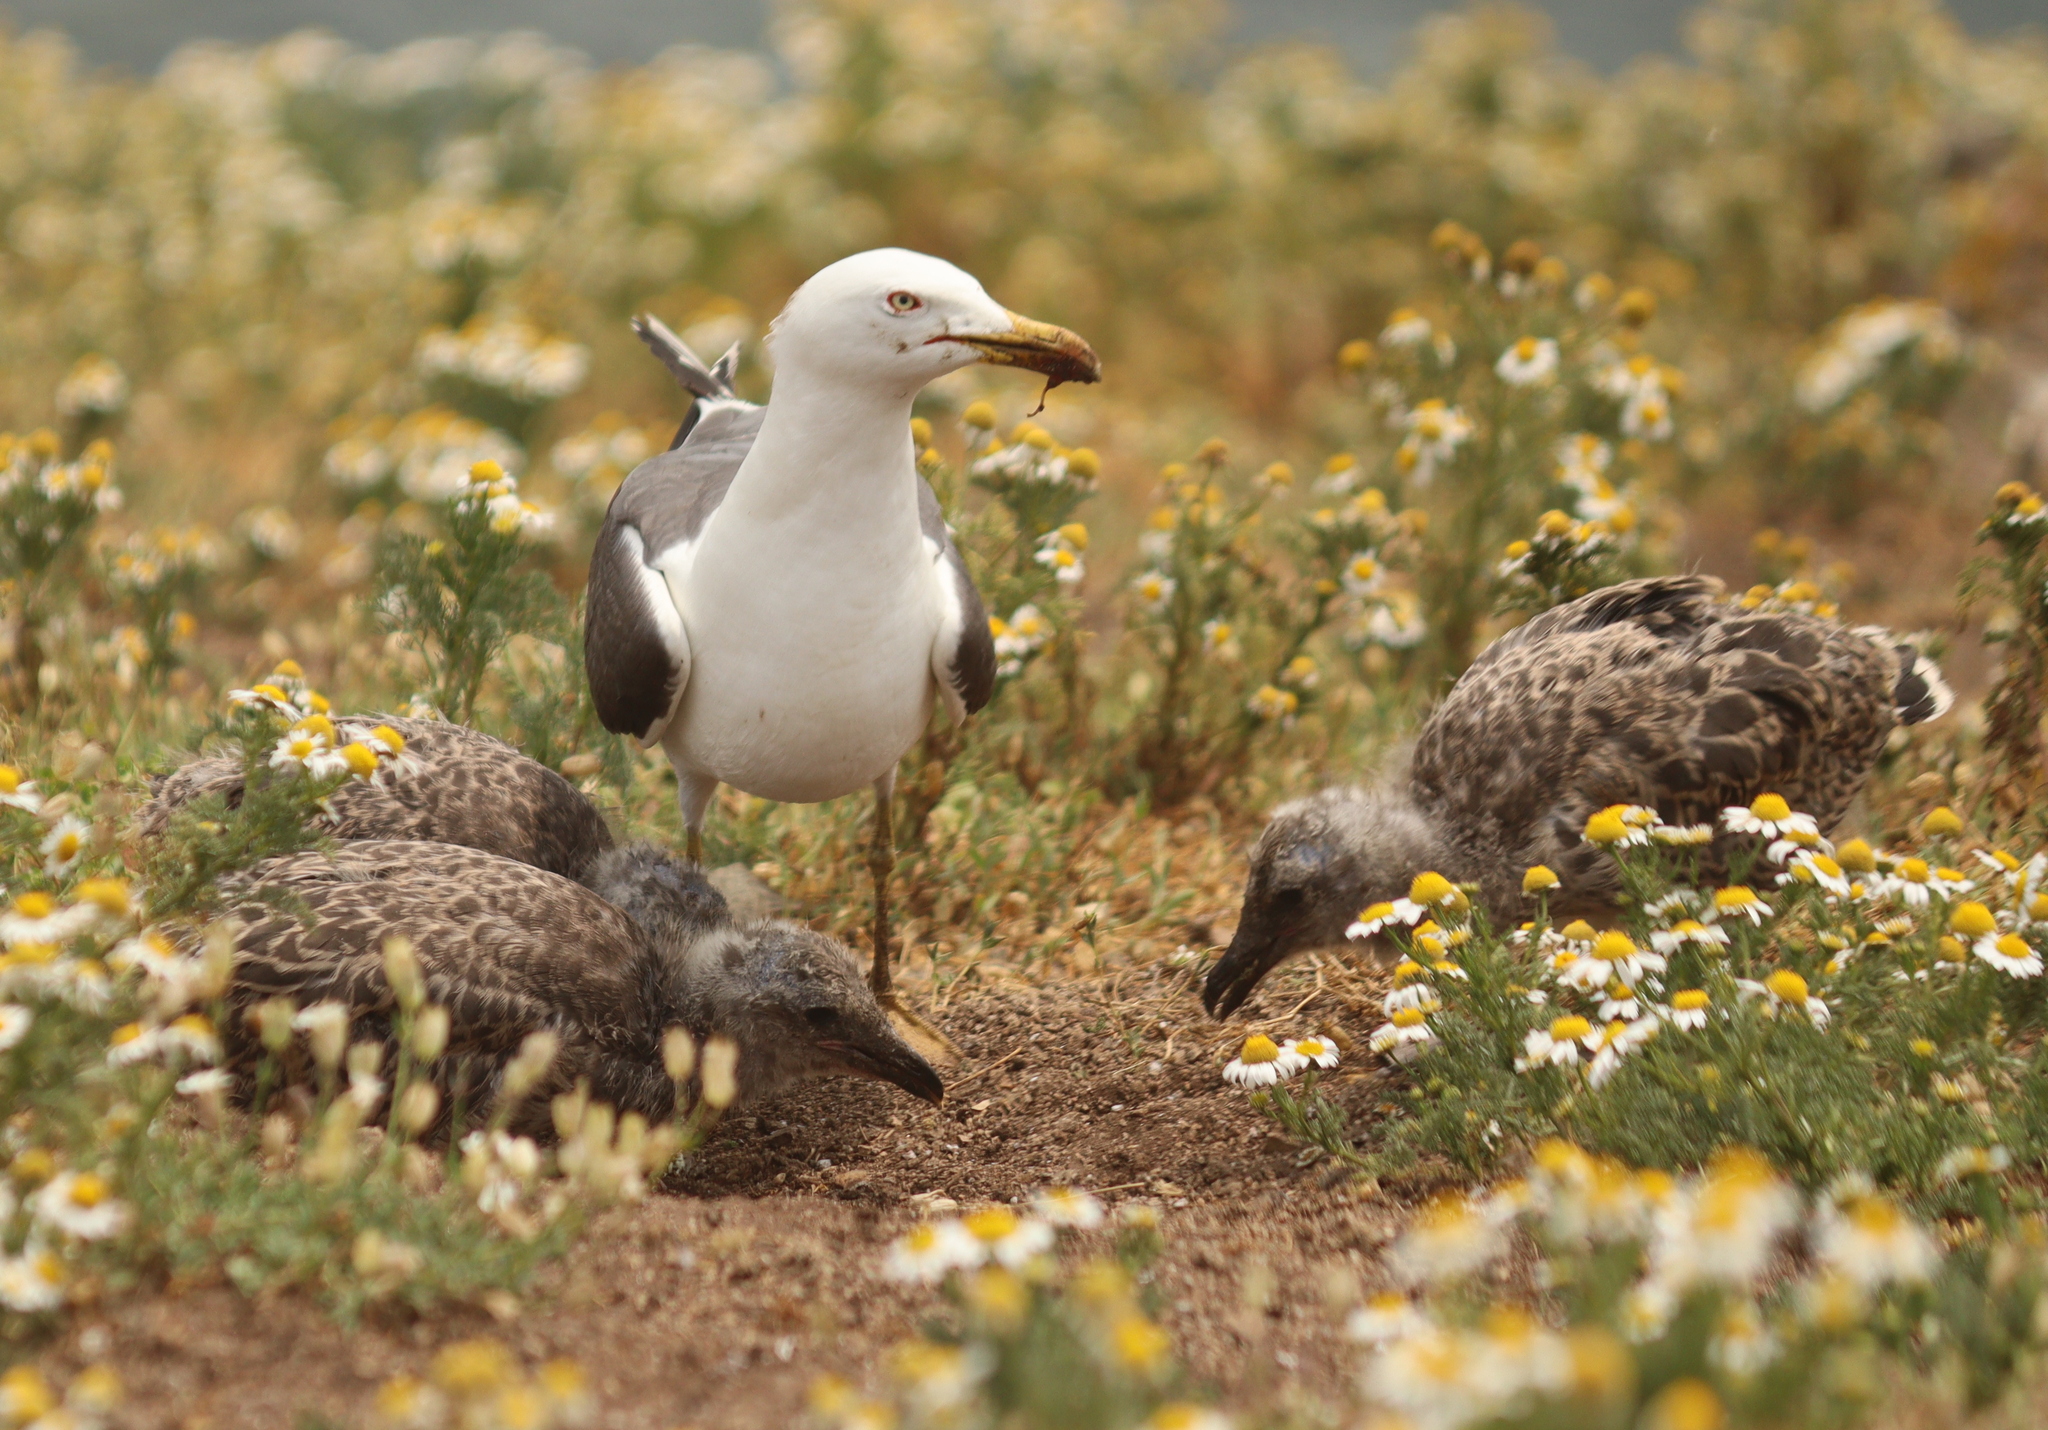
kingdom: Animalia
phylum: Chordata
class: Aves
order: Charadriiformes
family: Laridae
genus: Larus
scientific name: Larus fuscus
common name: Lesser black-backed gull
